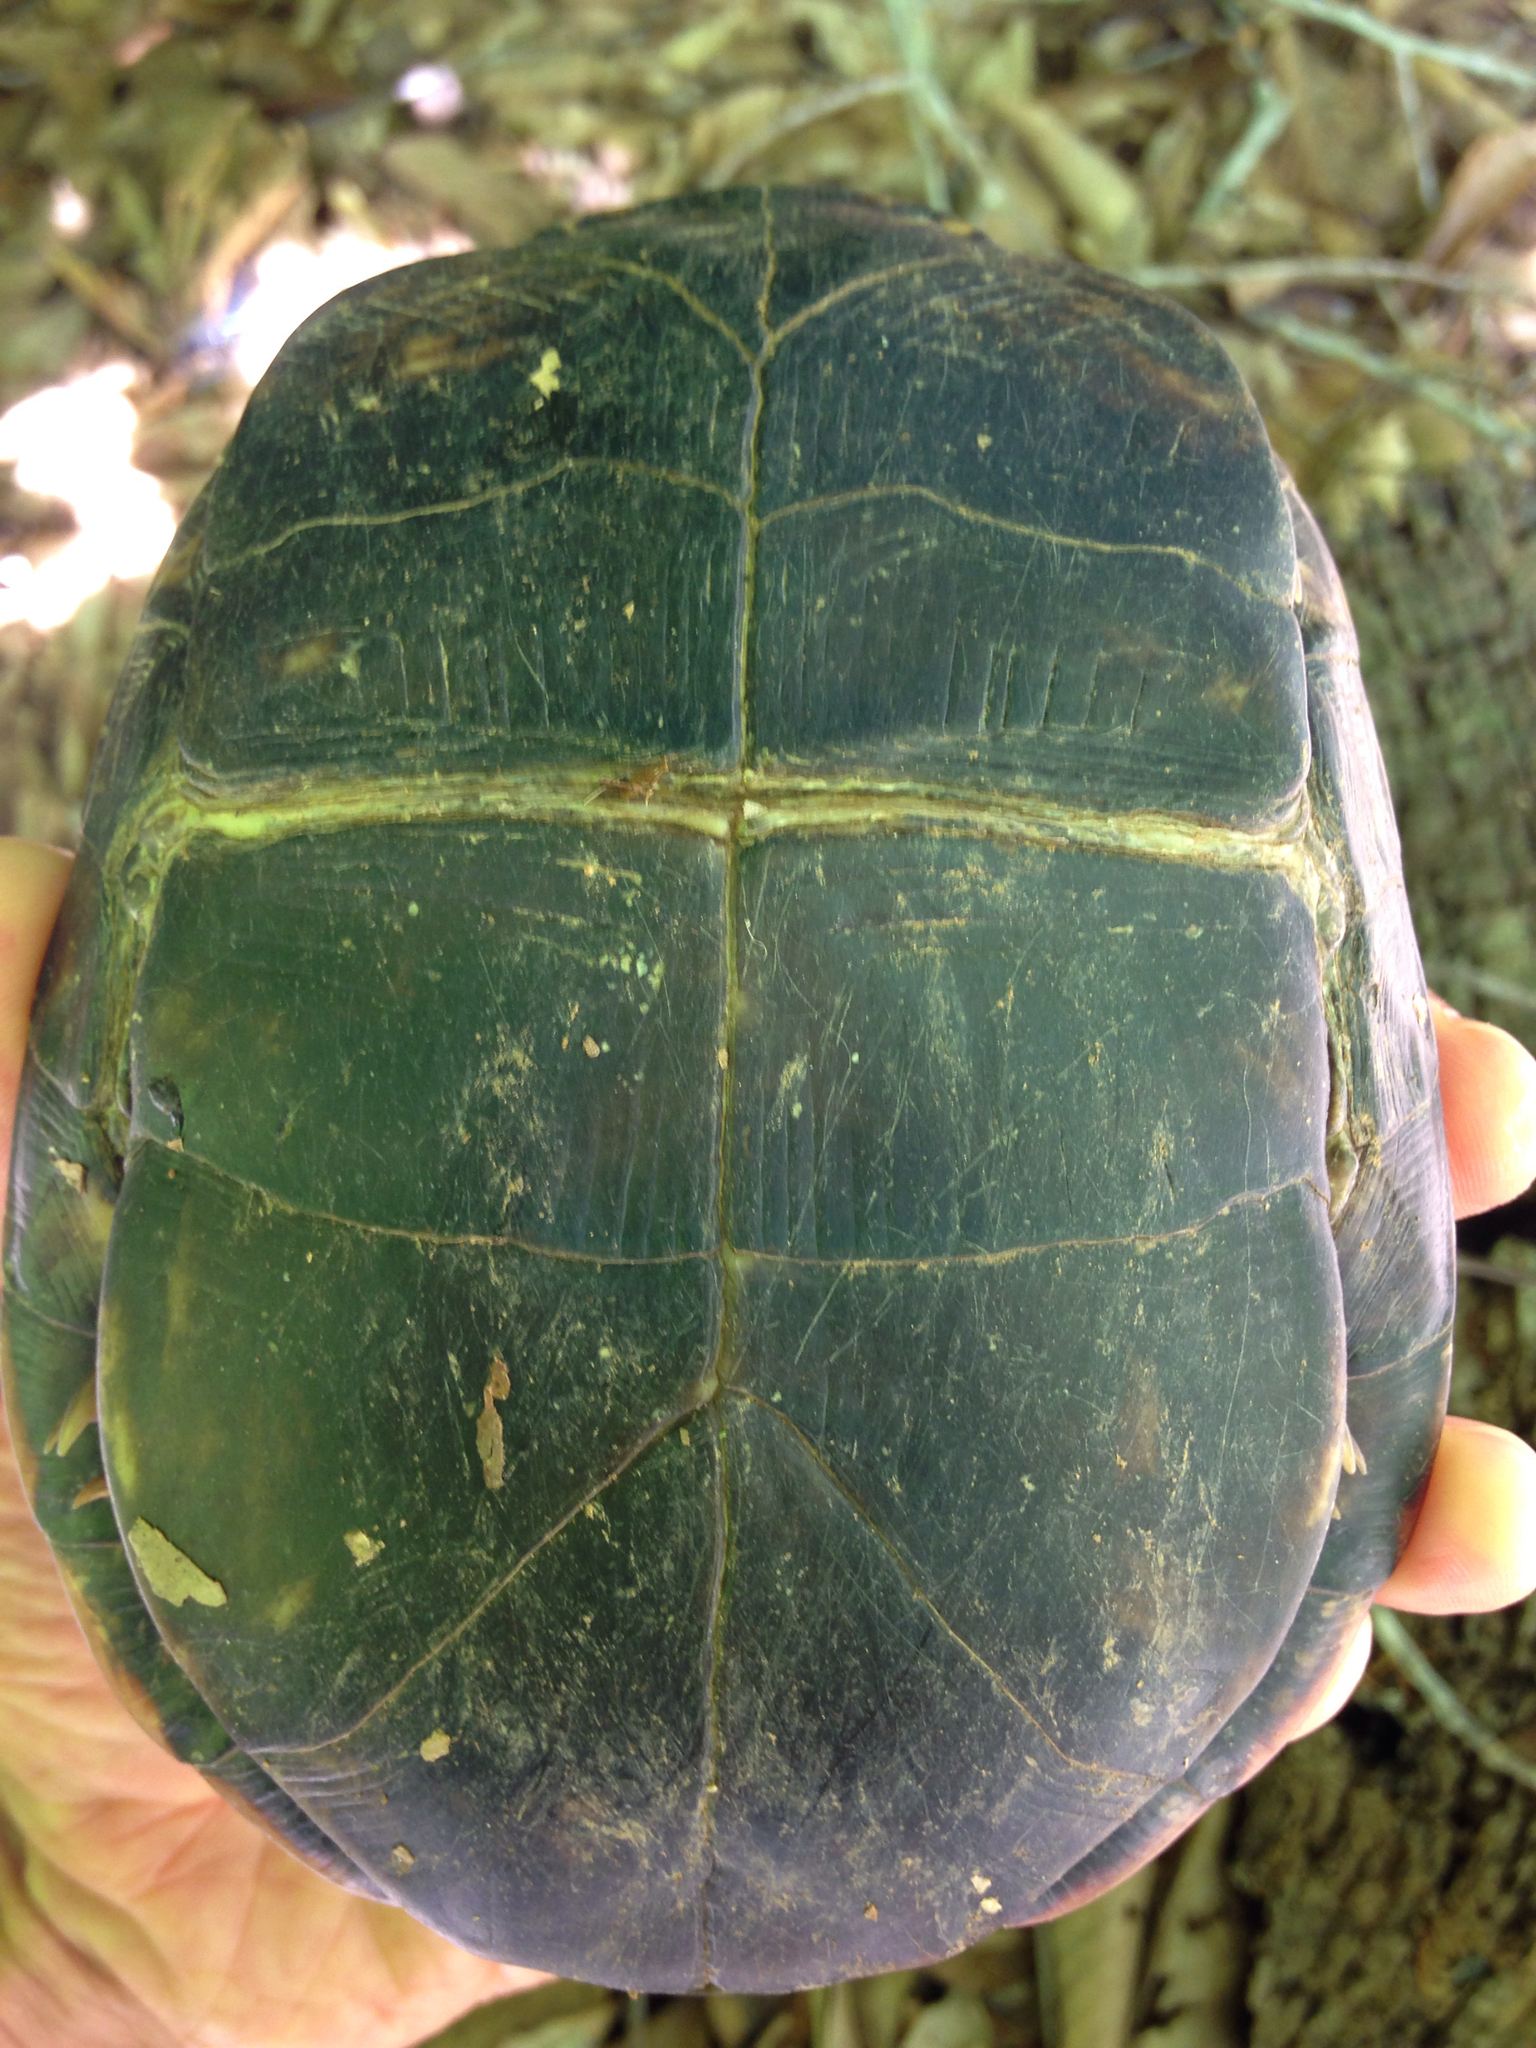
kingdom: Animalia
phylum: Chordata
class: Testudines
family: Emydidae
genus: Terrapene
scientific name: Terrapene carolina
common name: Common box turtle
